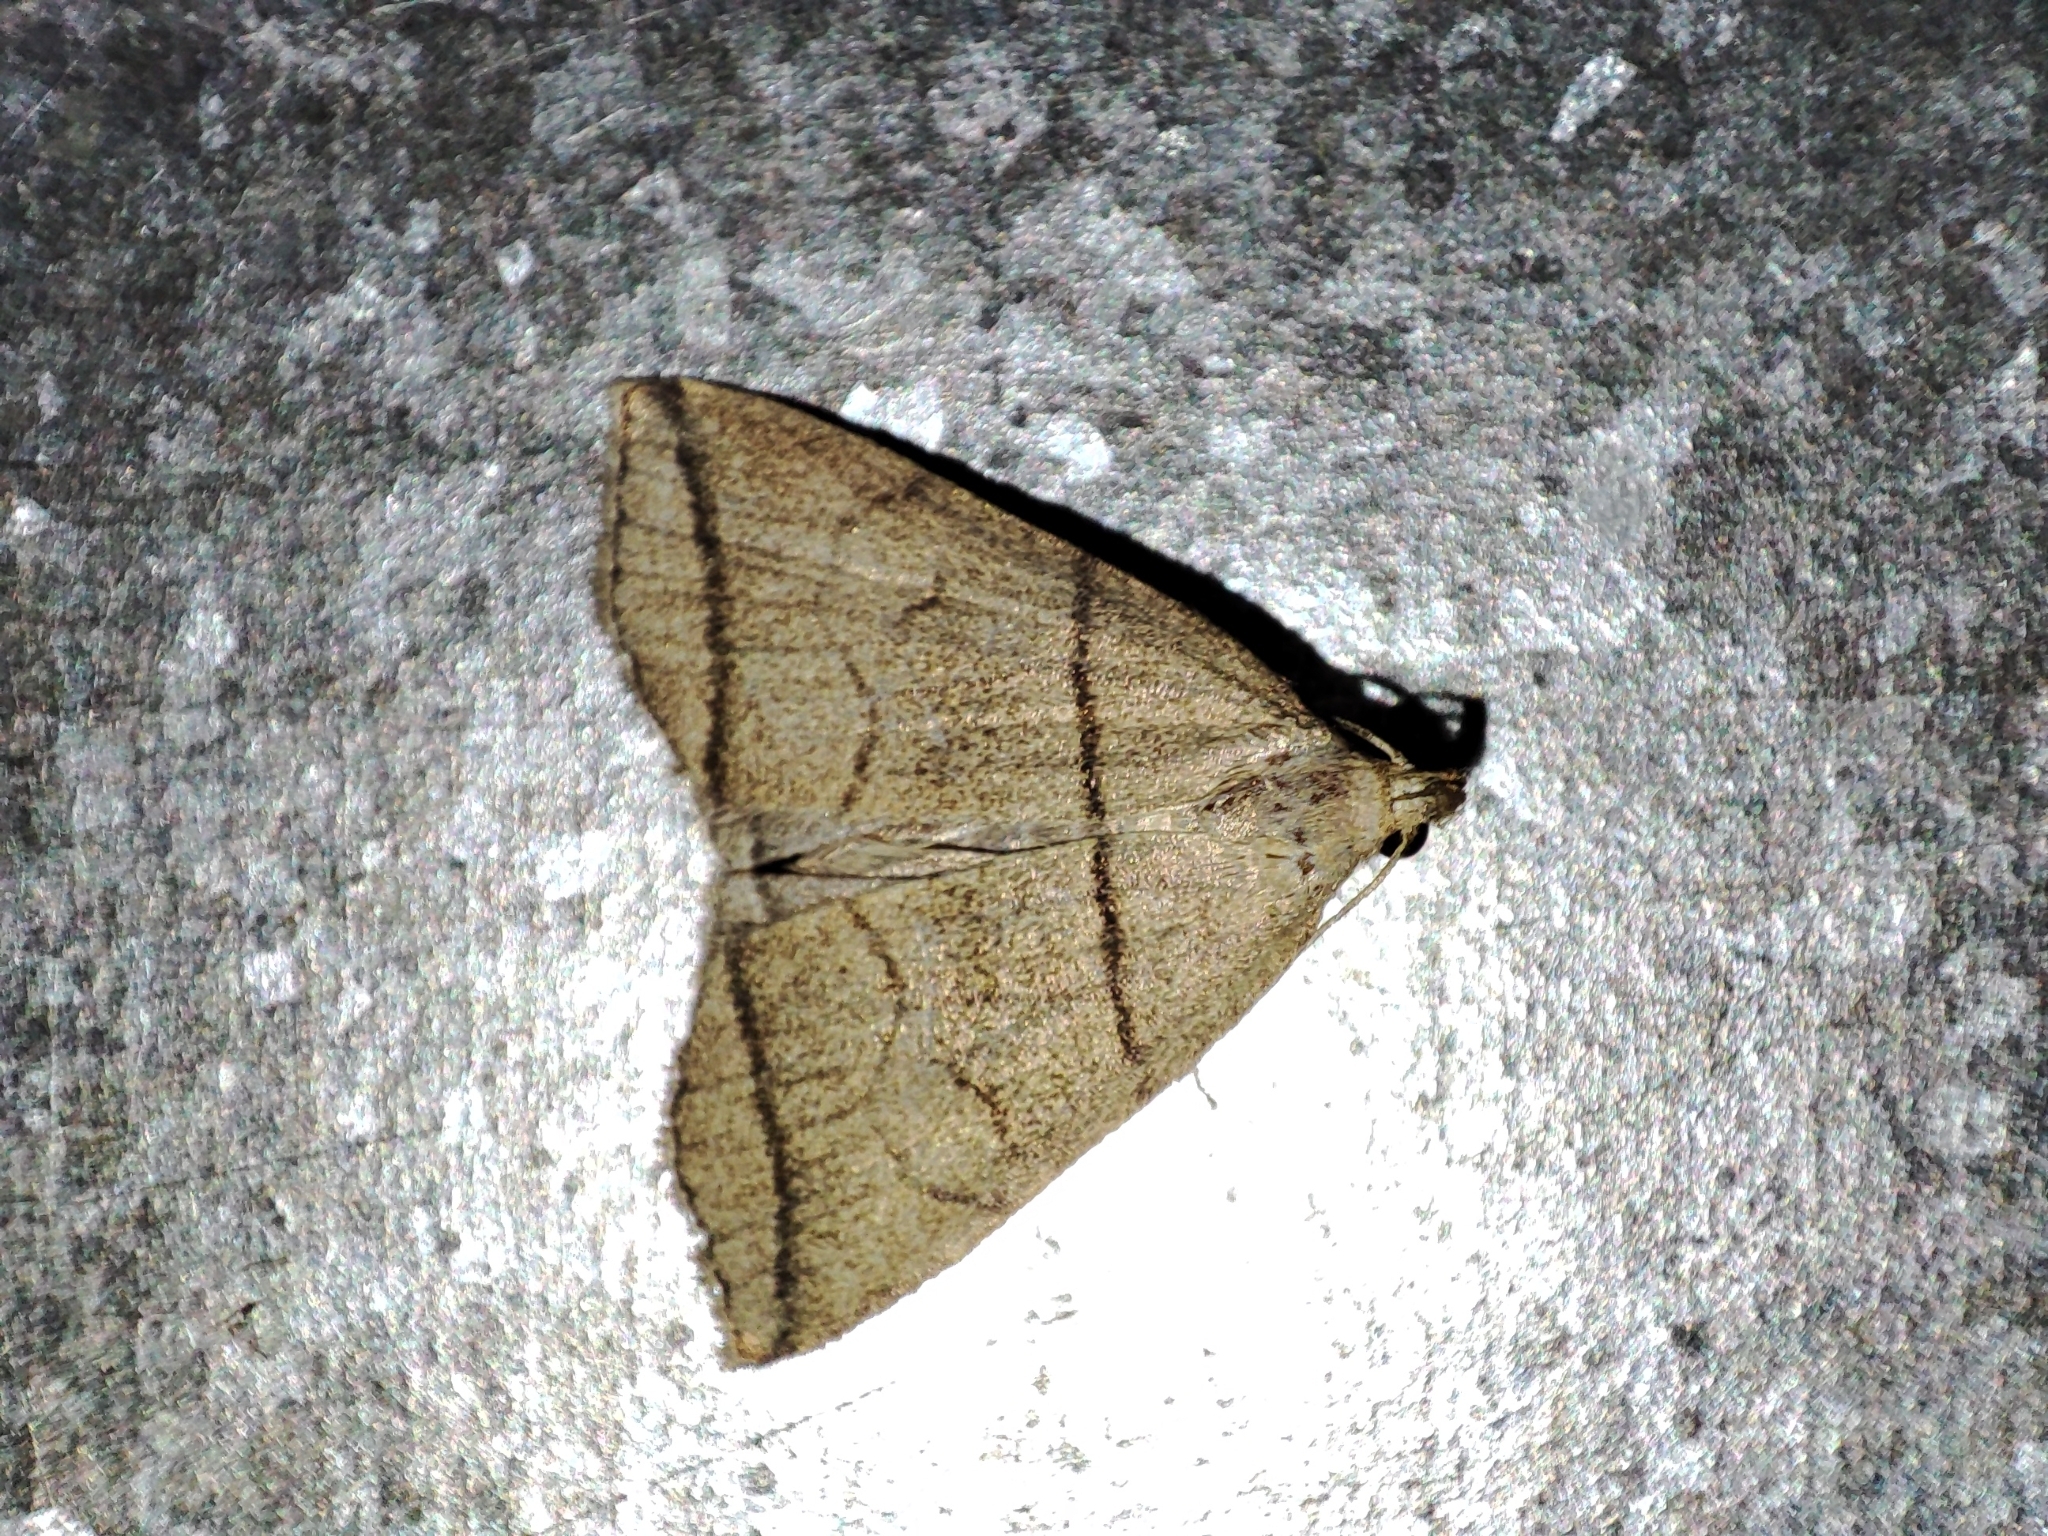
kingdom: Animalia
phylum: Arthropoda
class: Insecta
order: Lepidoptera
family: Erebidae
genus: Herminia
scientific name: Herminia grisealis
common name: Small fan-foot
